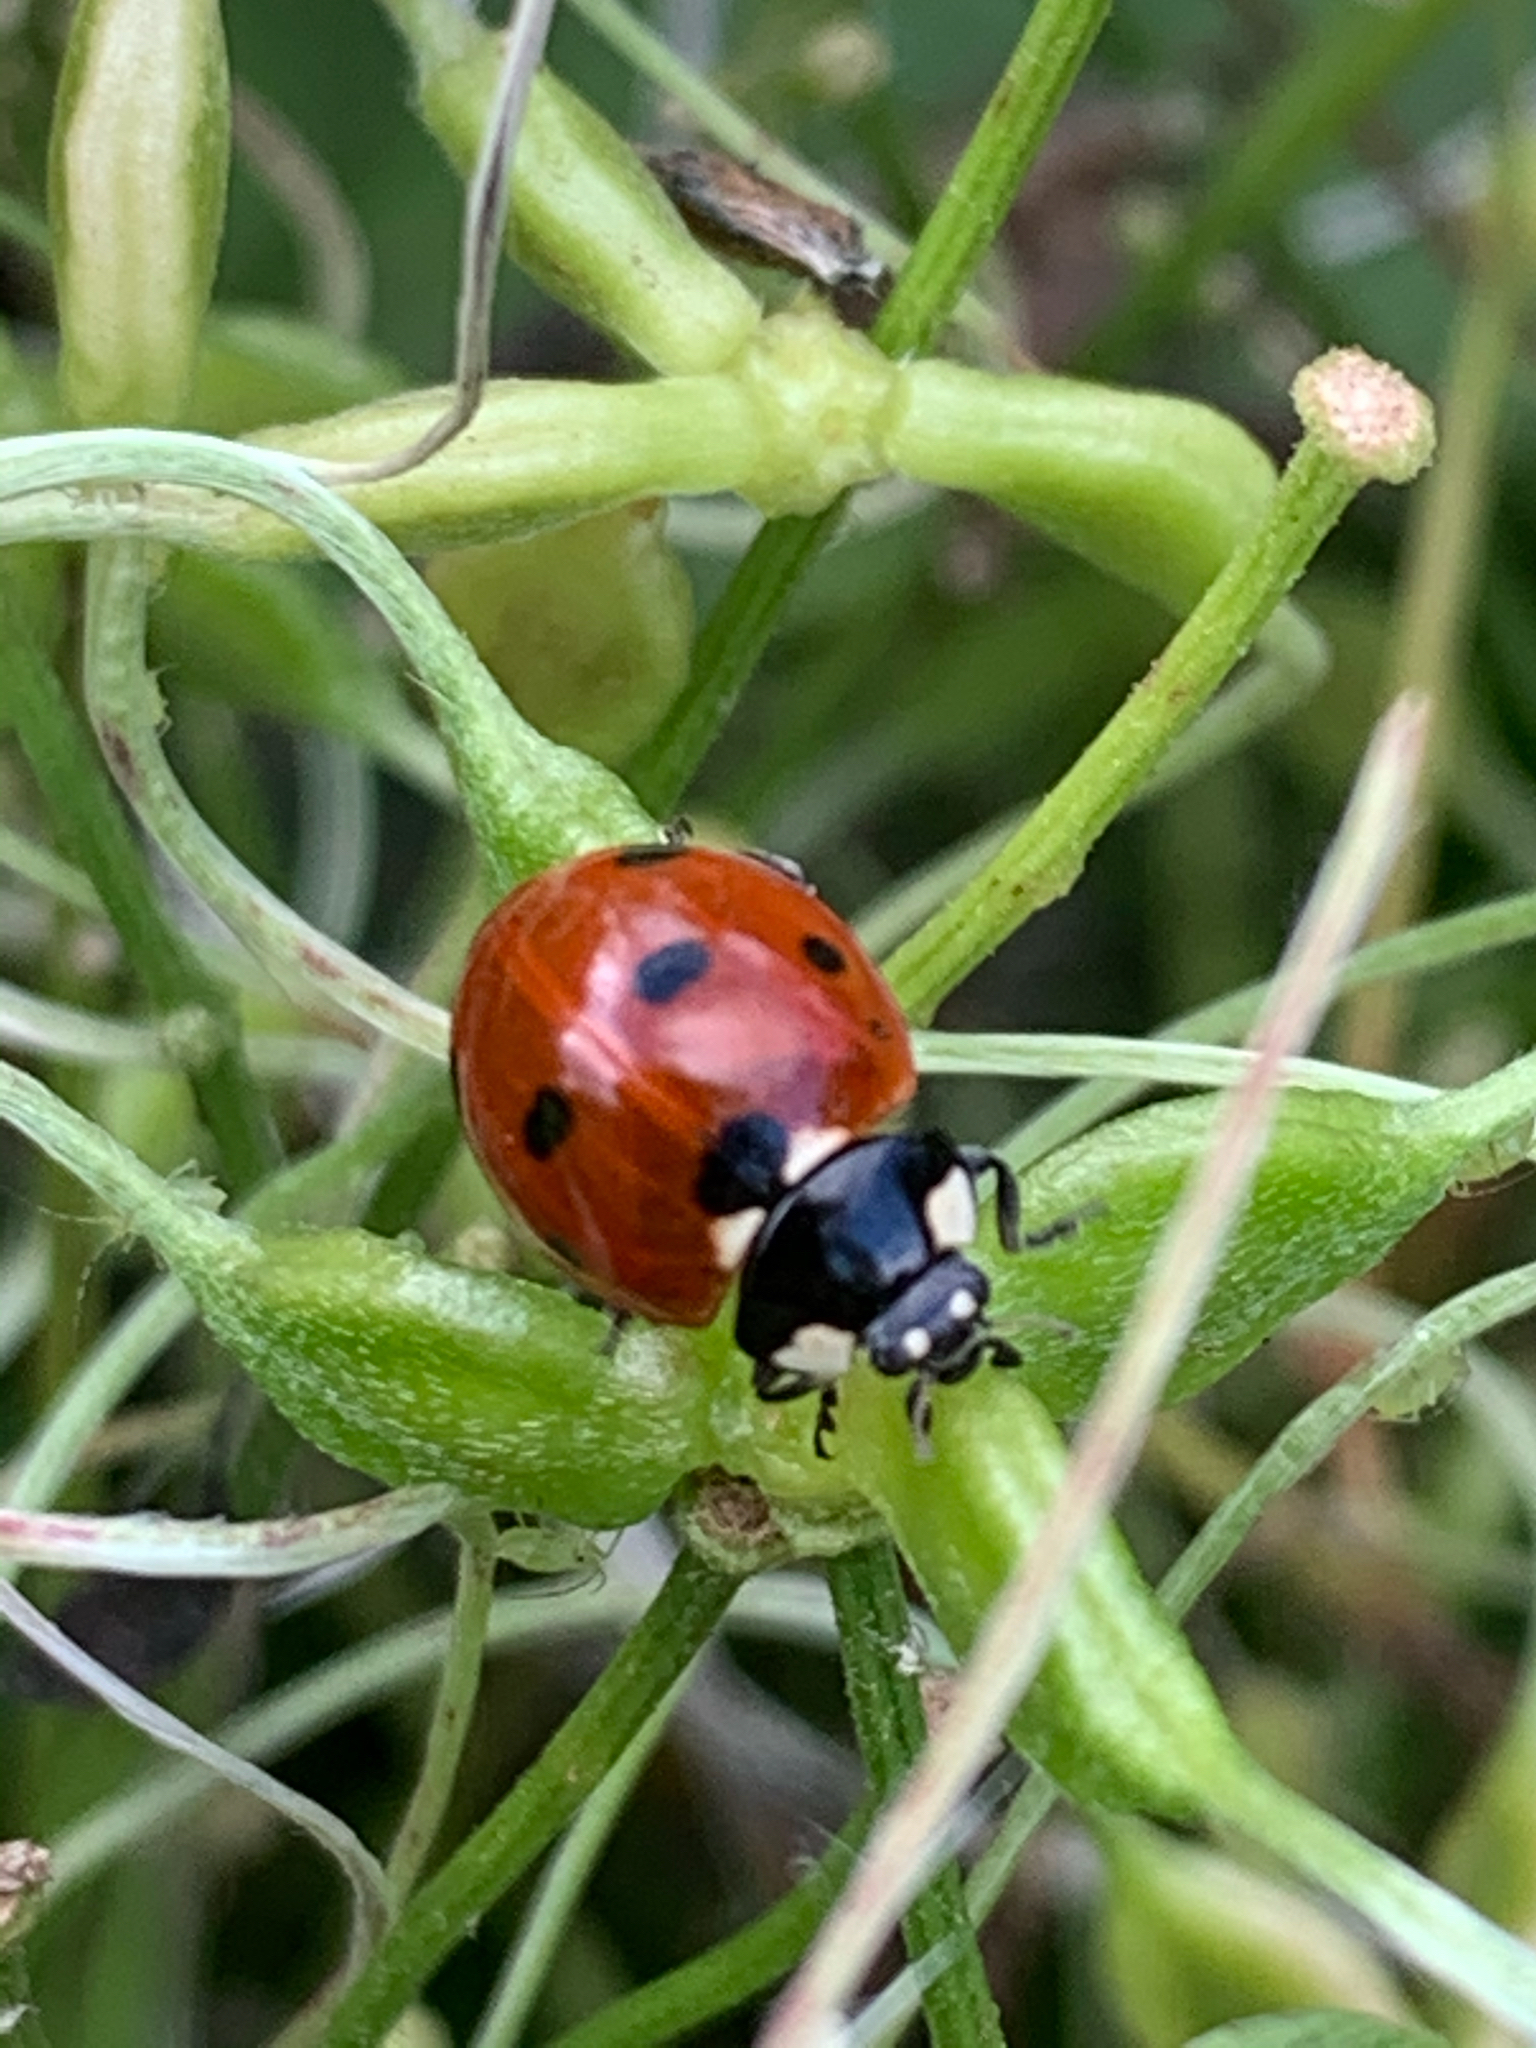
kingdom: Animalia
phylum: Arthropoda
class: Insecta
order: Coleoptera
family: Coccinellidae
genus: Coccinella
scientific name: Coccinella septempunctata
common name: Sevenspotted lady beetle
